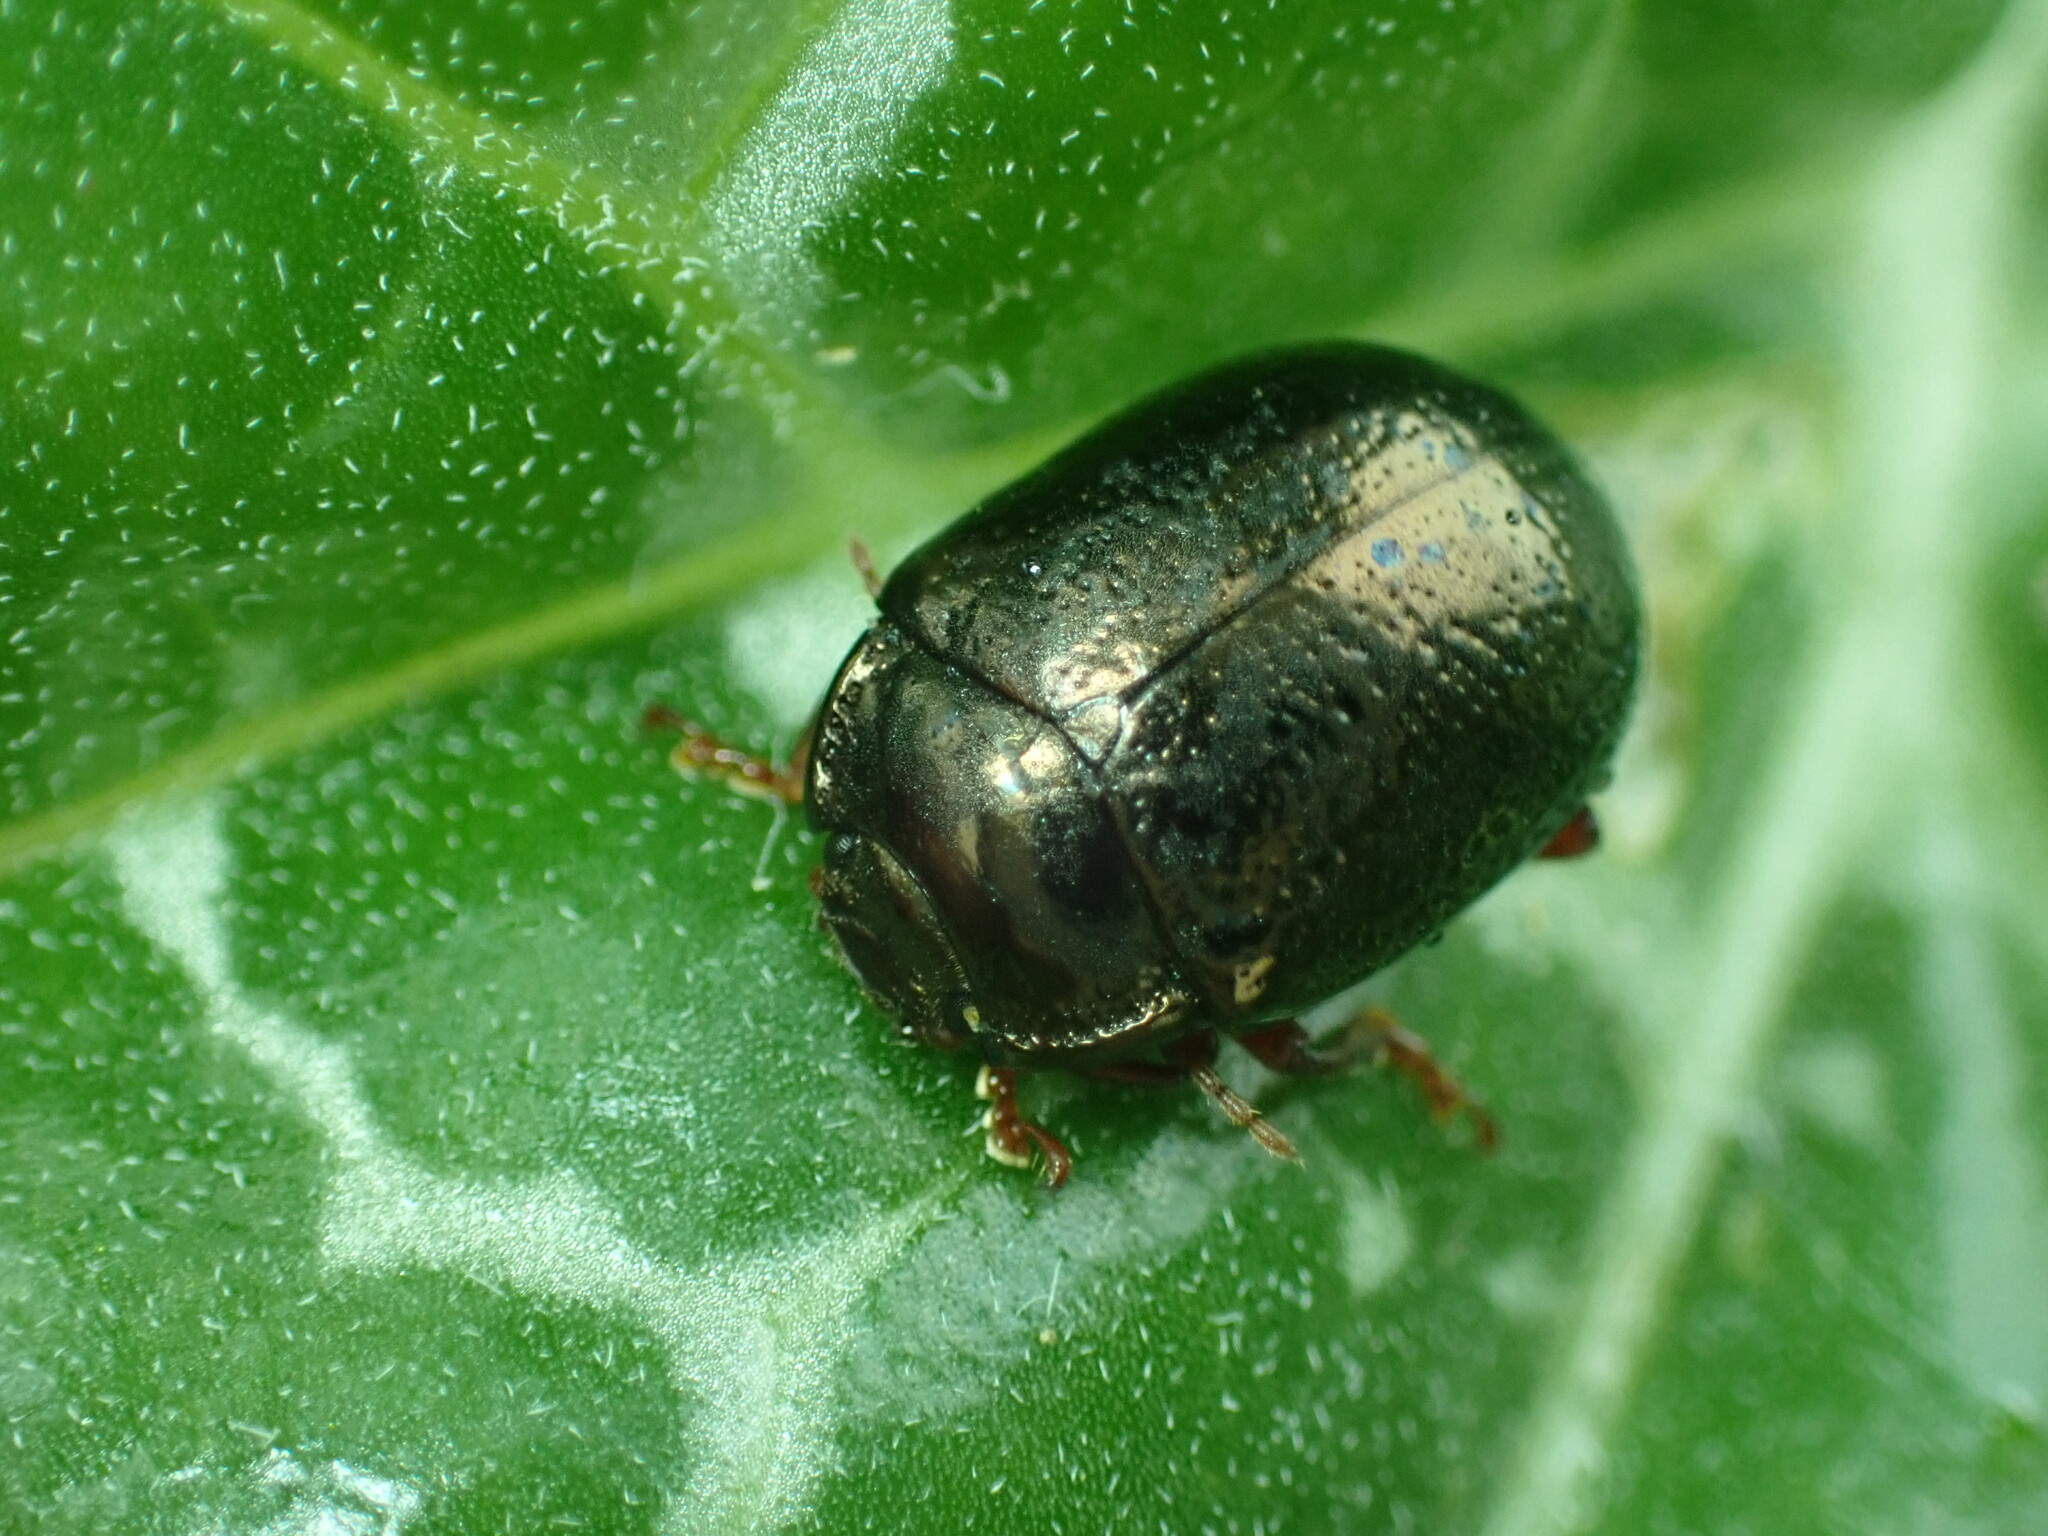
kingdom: Animalia
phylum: Arthropoda
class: Insecta
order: Coleoptera
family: Chrysomelidae
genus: Chrysolina
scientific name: Chrysolina bankii
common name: Leaf beetle
